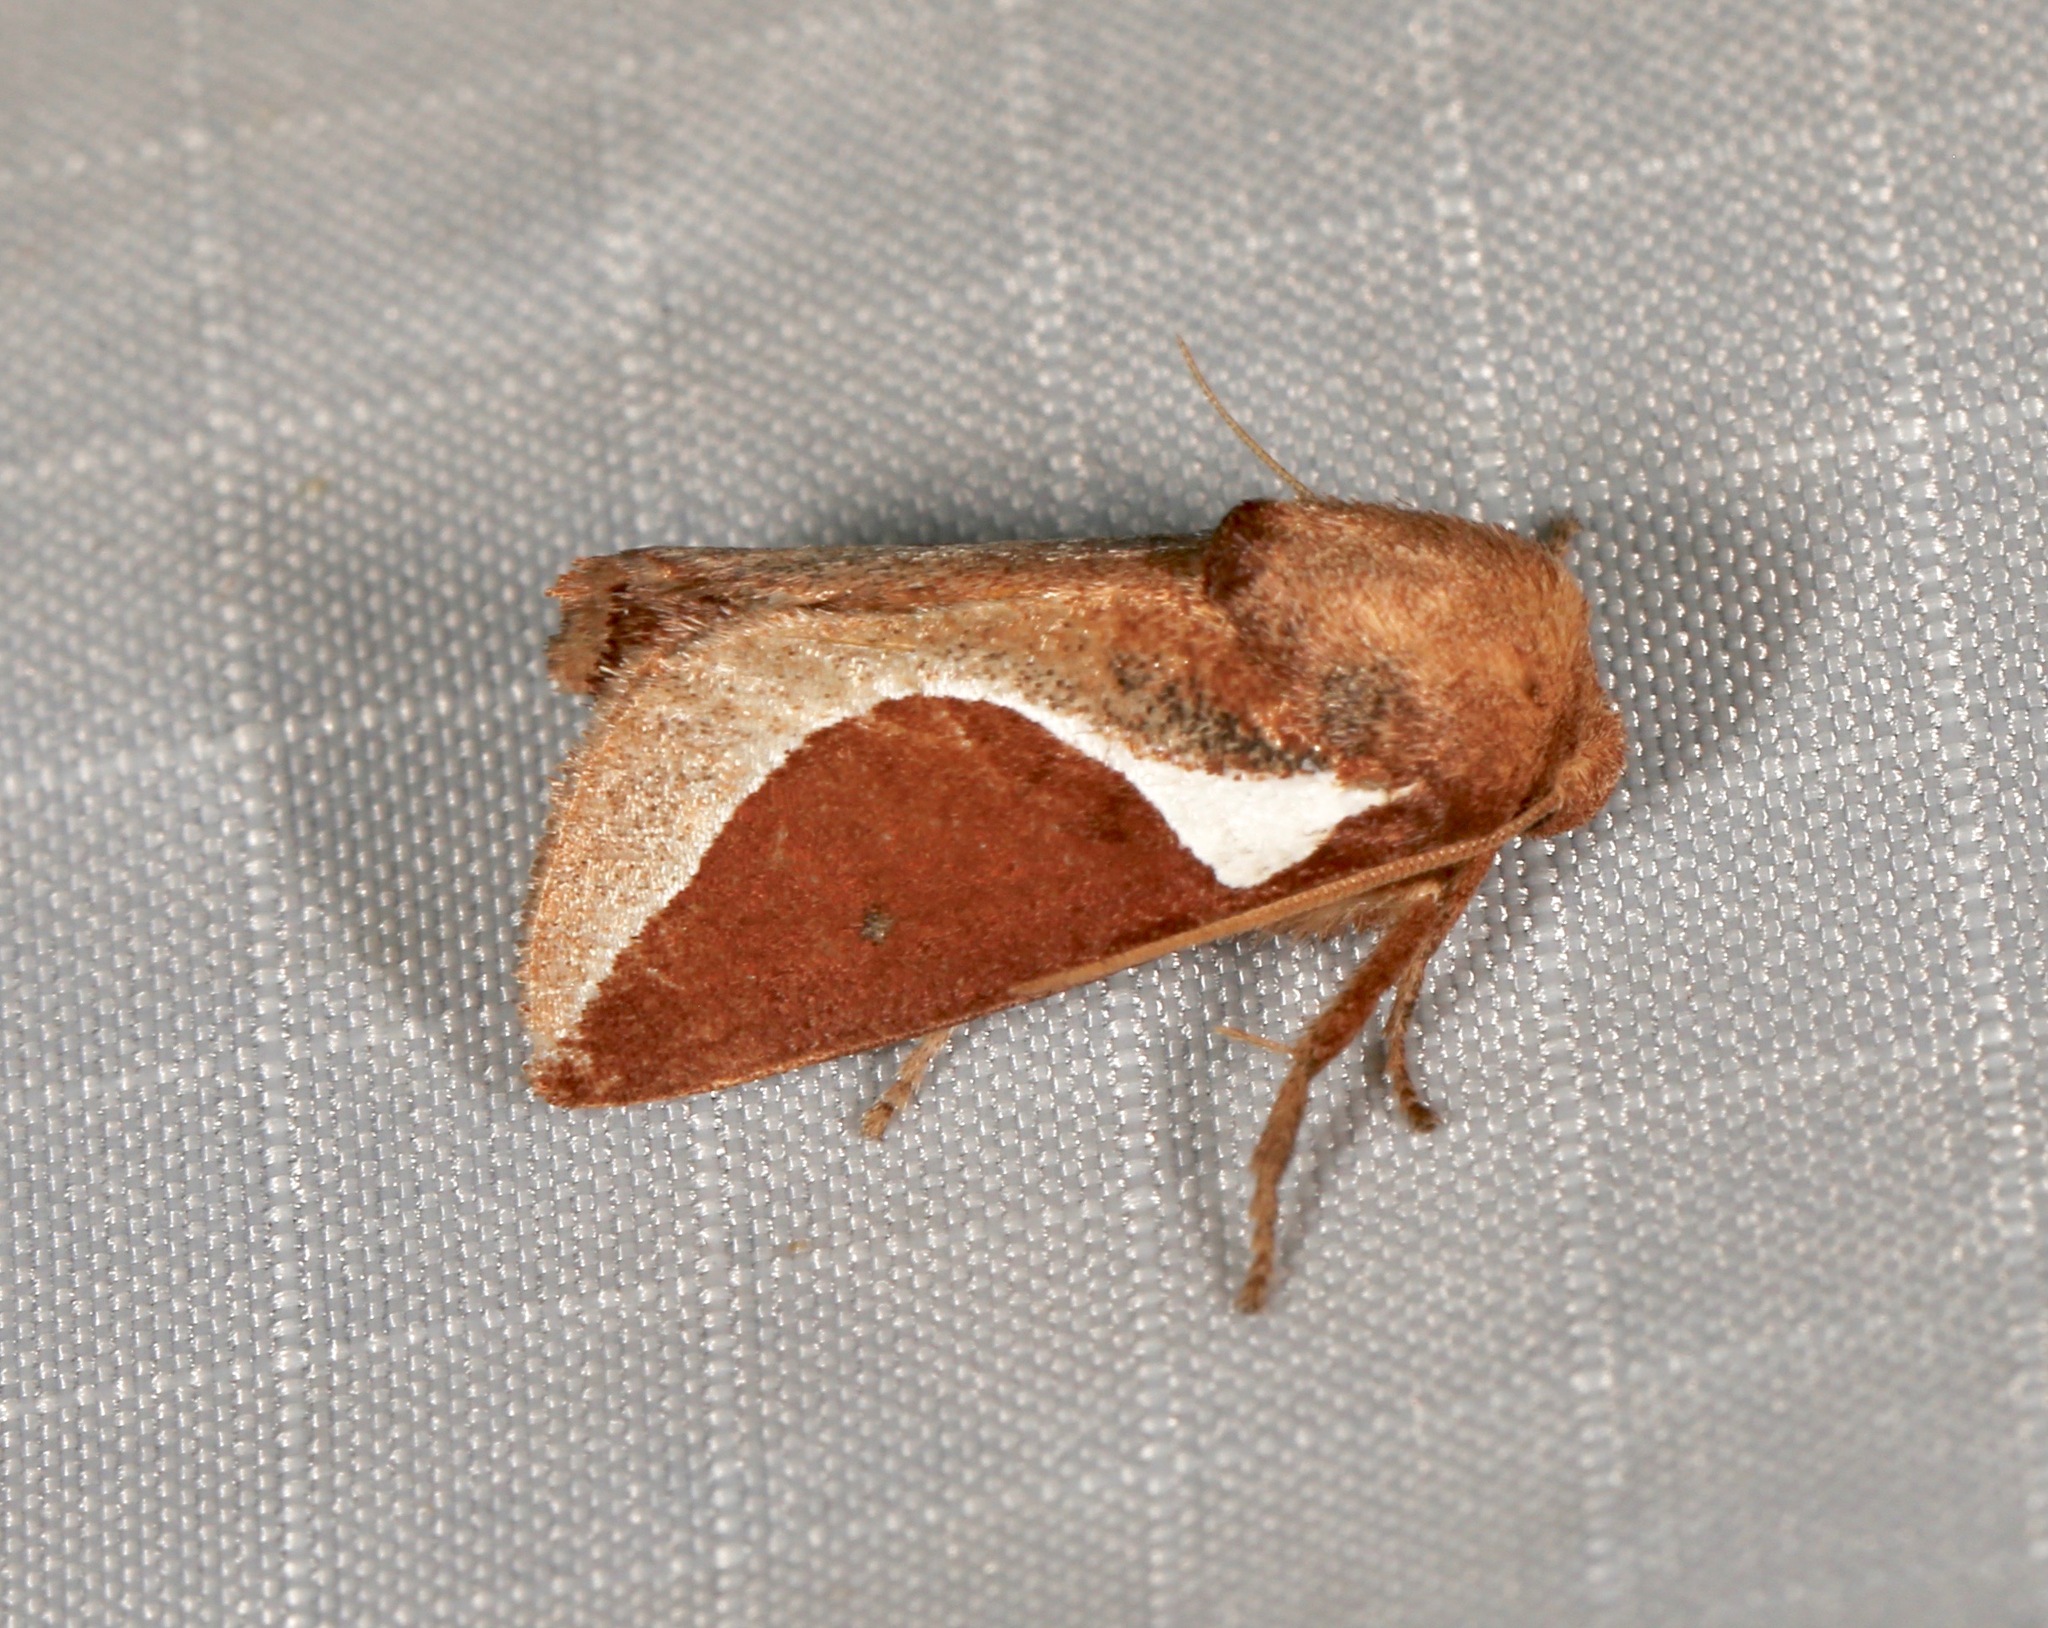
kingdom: Animalia
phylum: Arthropoda
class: Insecta
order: Lepidoptera
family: Limacodidae
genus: Prolimacodes
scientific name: Prolimacodes badia
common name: Skiff moth
